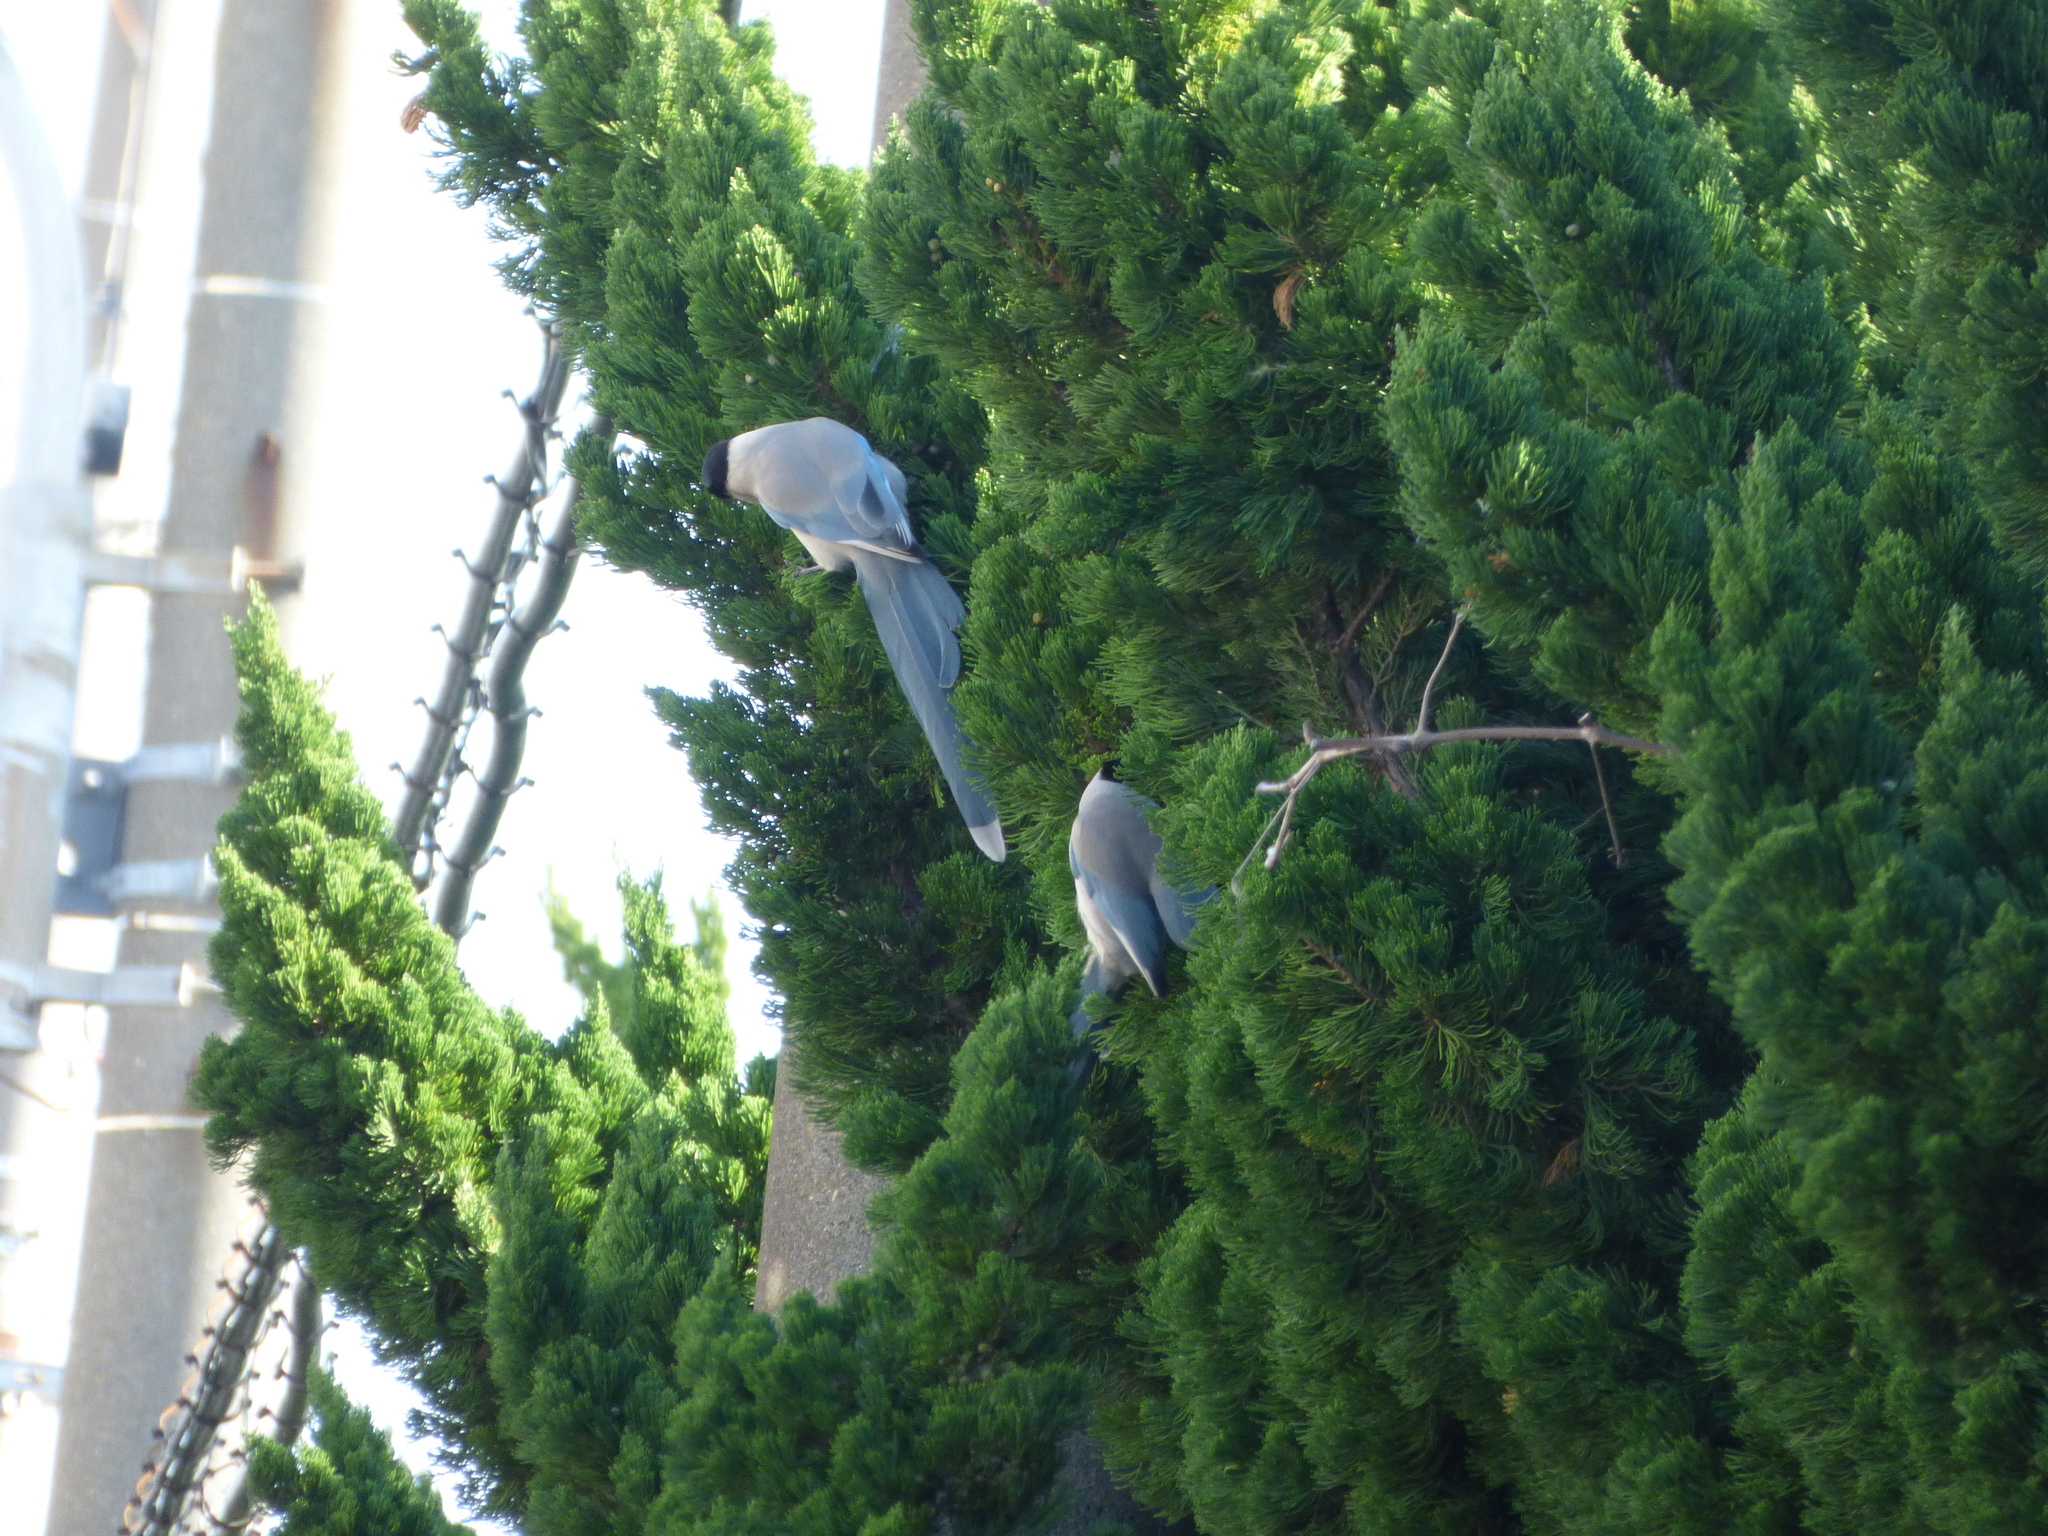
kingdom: Animalia
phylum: Chordata
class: Aves
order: Passeriformes
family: Corvidae
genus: Cyanopica
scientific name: Cyanopica cyanus
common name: Azure-winged magpie
